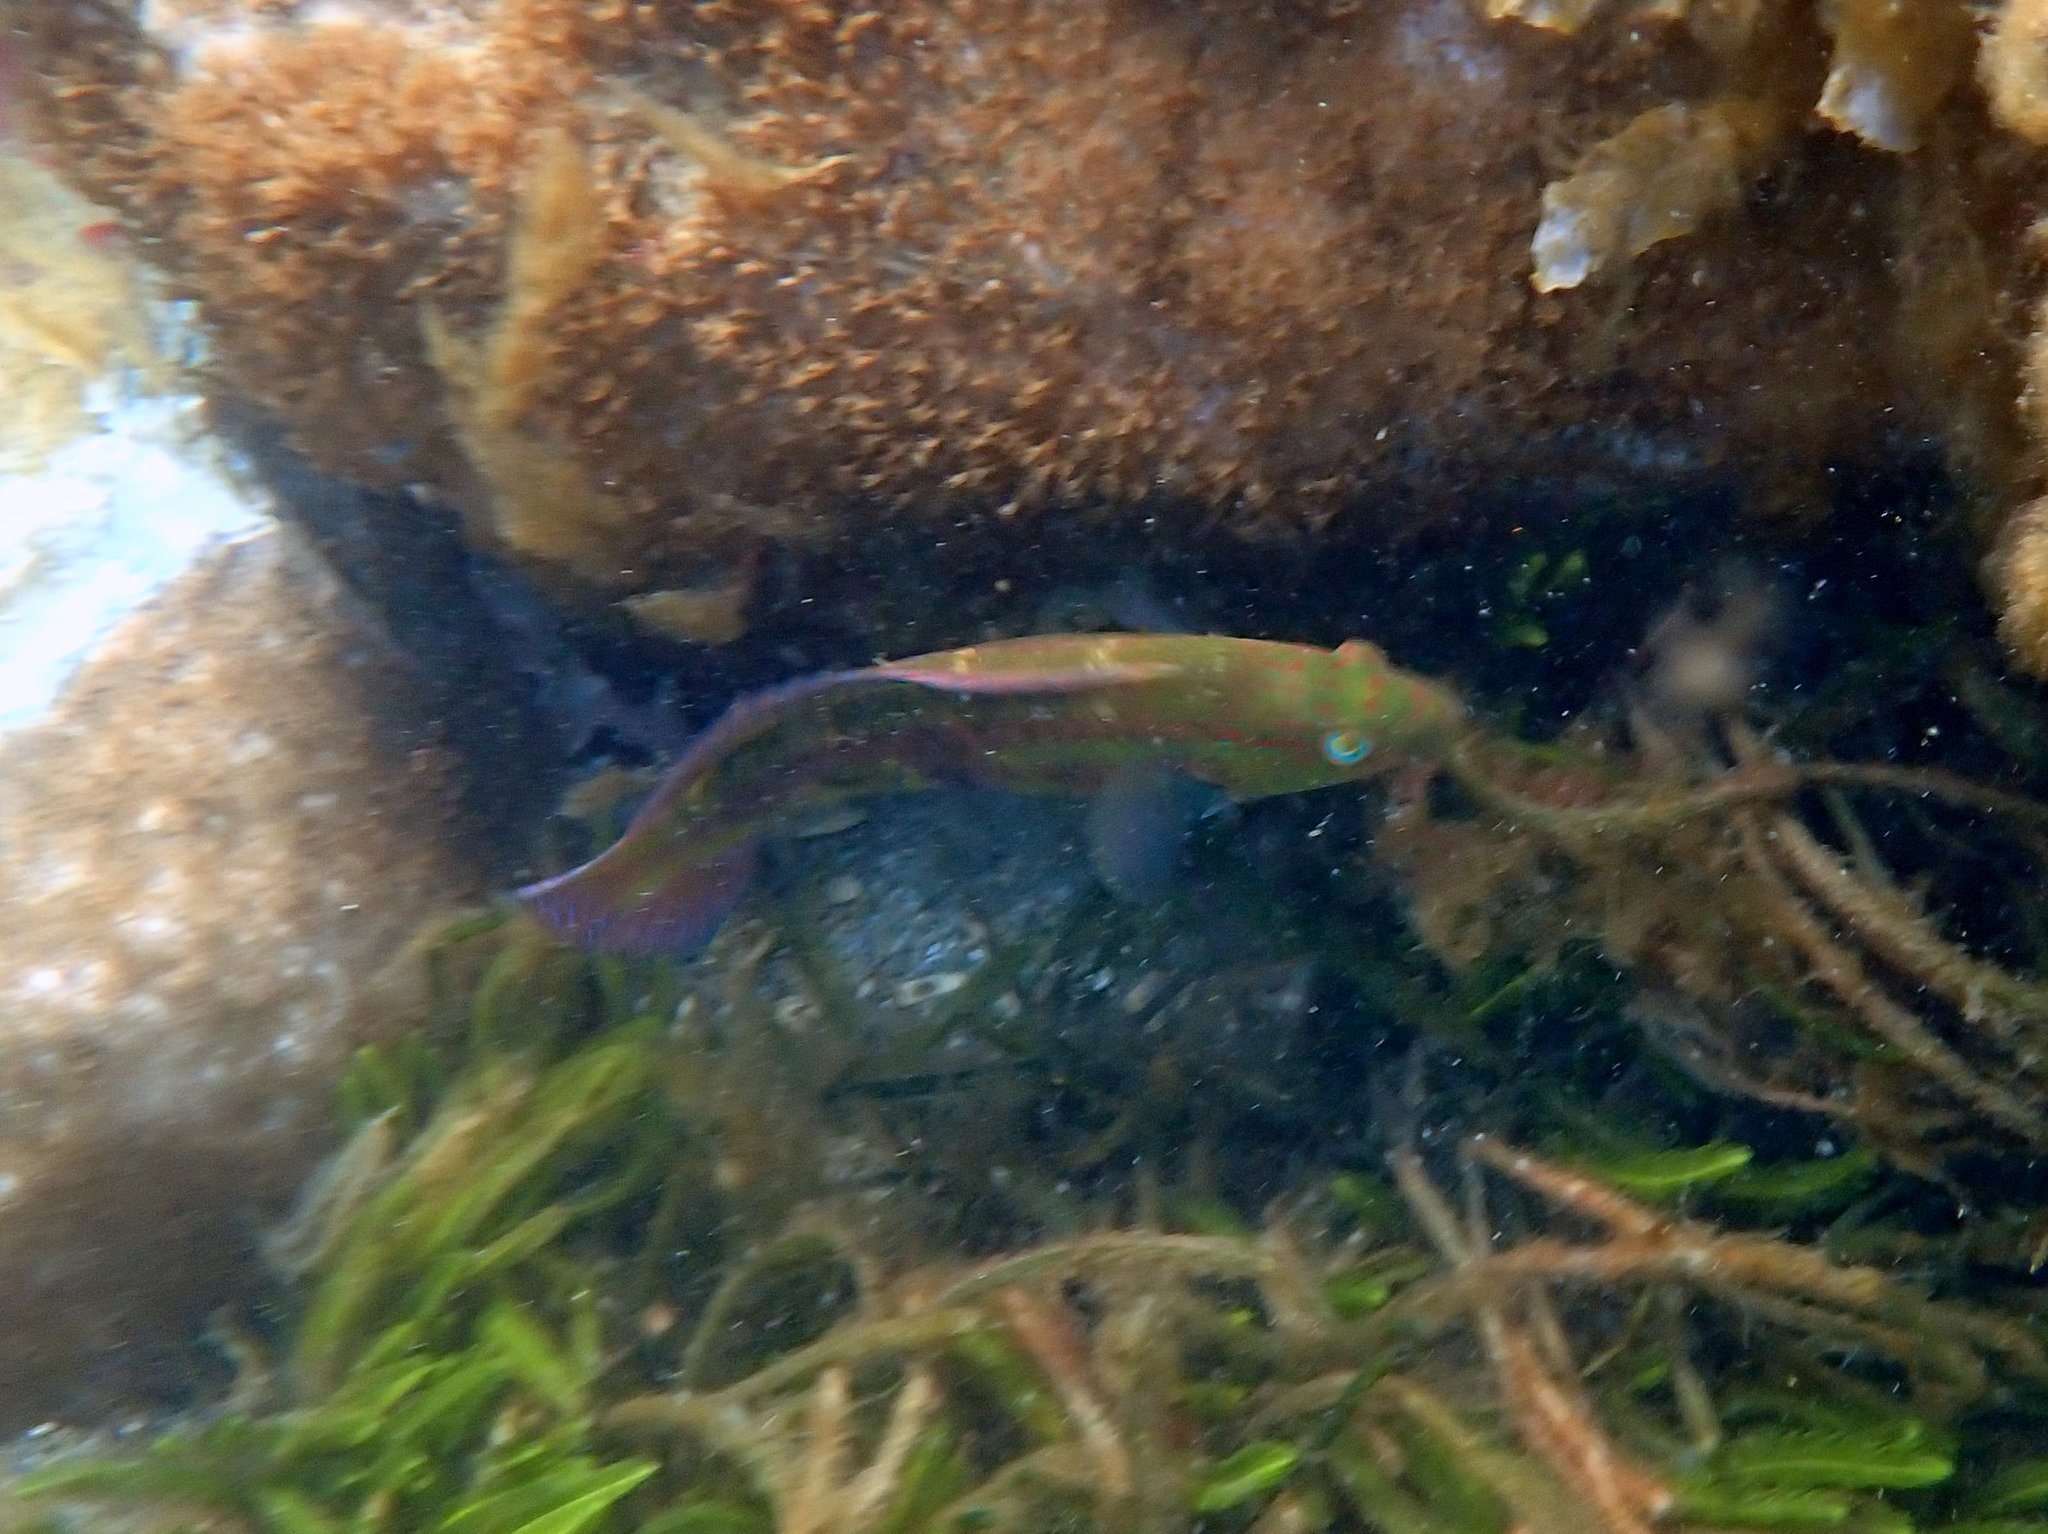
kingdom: Animalia
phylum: Chordata
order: Perciformes
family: Labridae
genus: Pictilabrus
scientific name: Pictilabrus laticlavius
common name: Patrician wrasse
